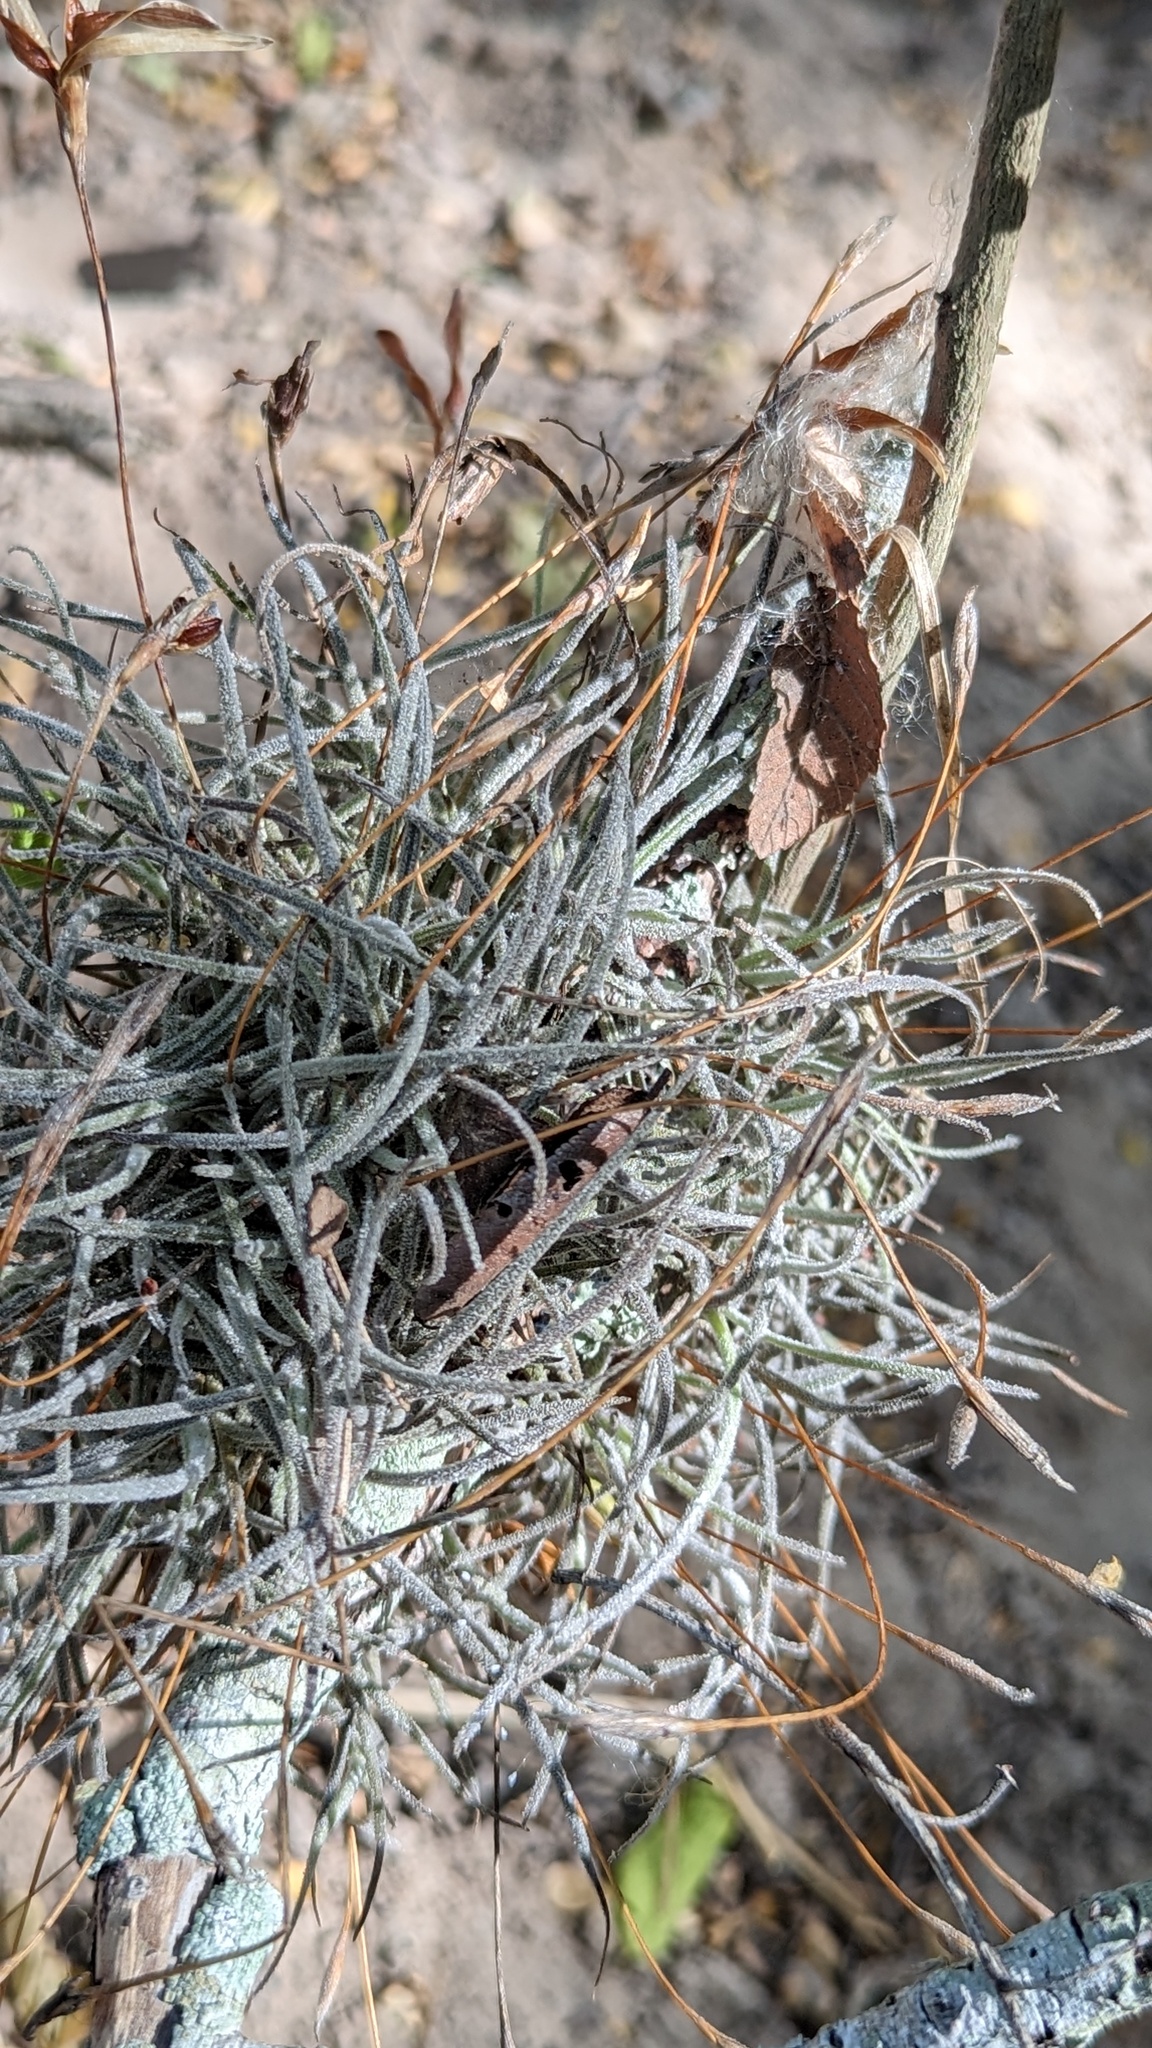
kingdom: Plantae
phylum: Tracheophyta
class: Liliopsida
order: Poales
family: Bromeliaceae
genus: Tillandsia
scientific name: Tillandsia recurvata
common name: Small ballmoss
